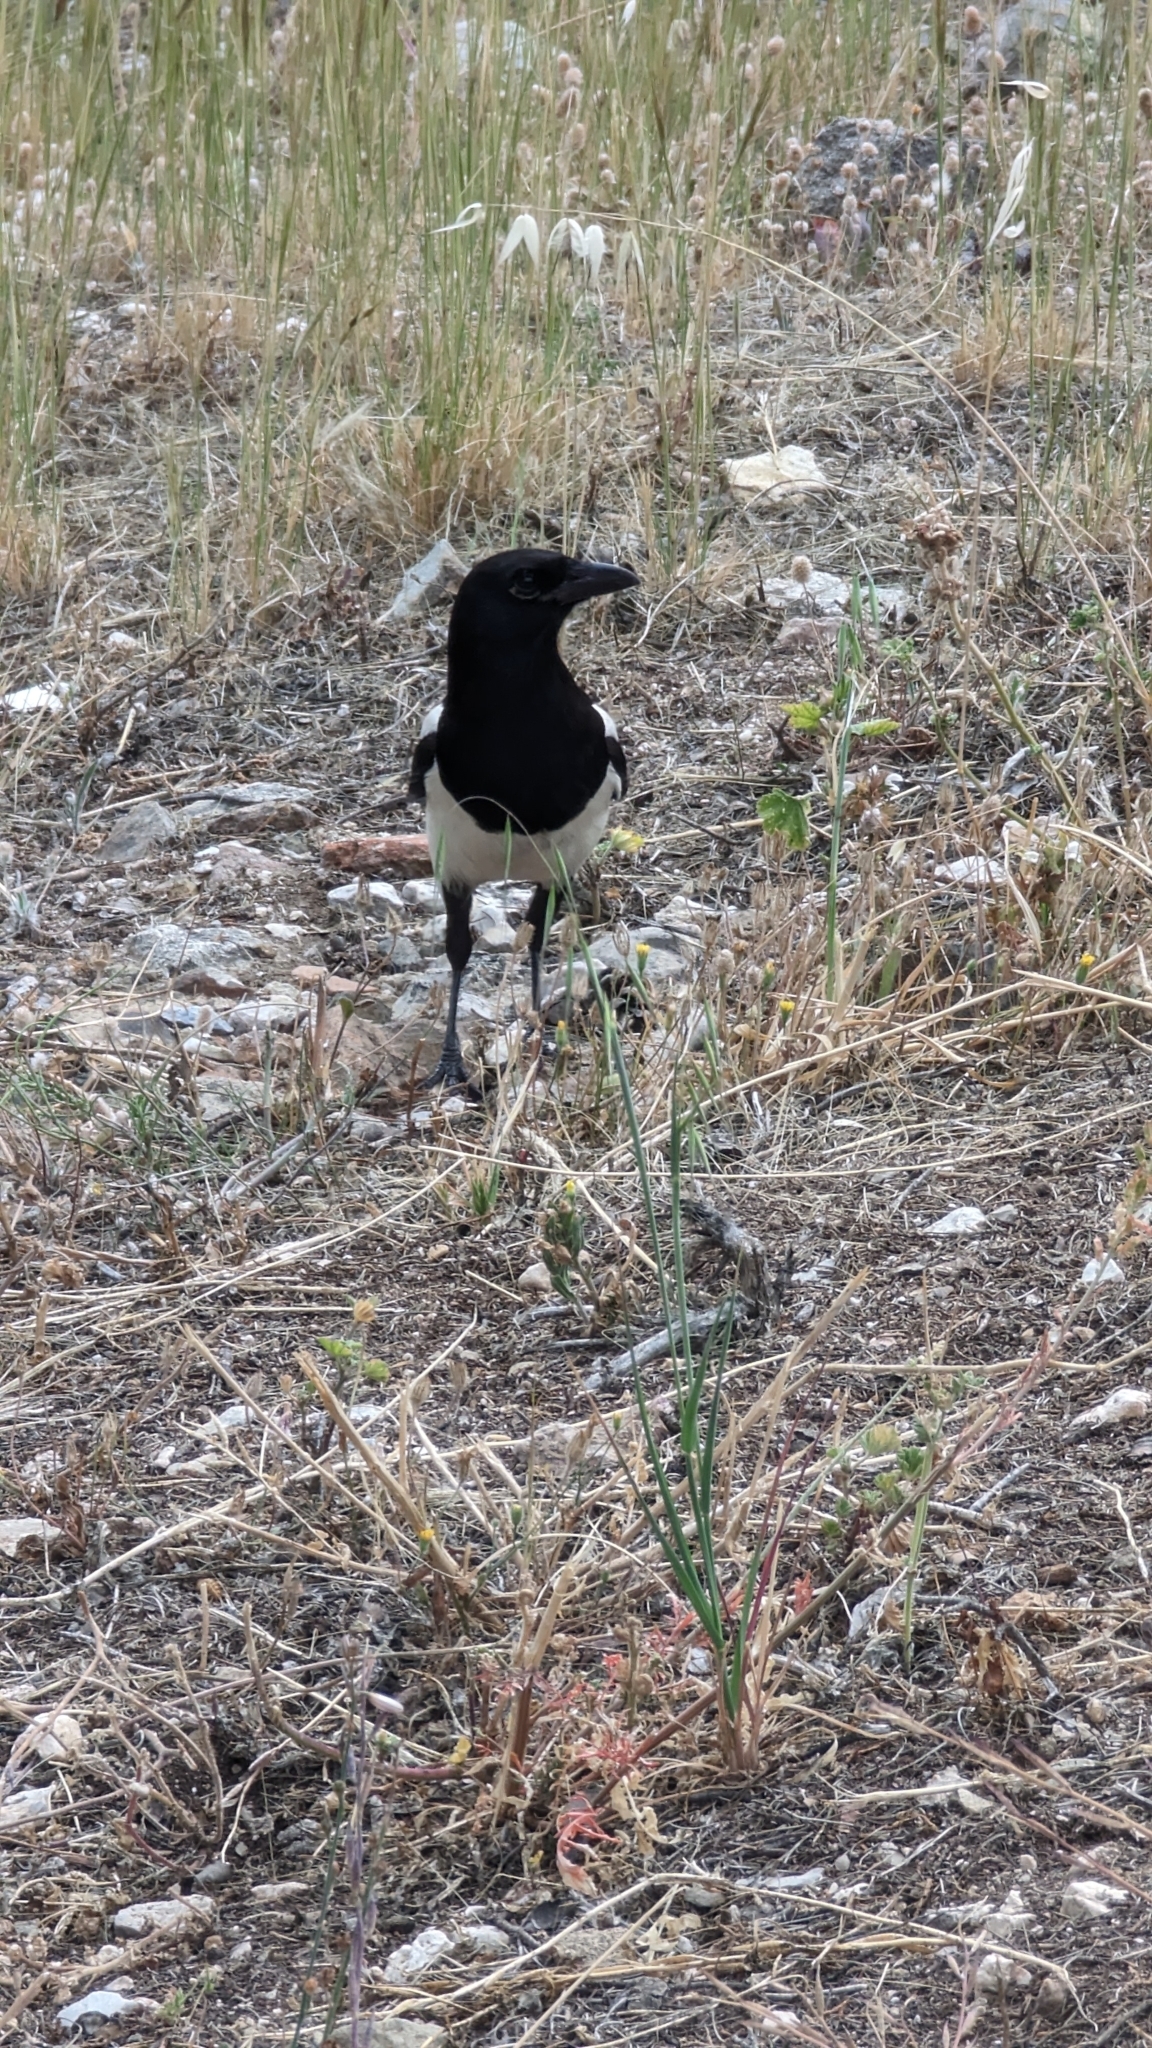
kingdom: Animalia
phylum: Chordata
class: Aves
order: Passeriformes
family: Corvidae
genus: Pica
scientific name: Pica pica
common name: Eurasian magpie
